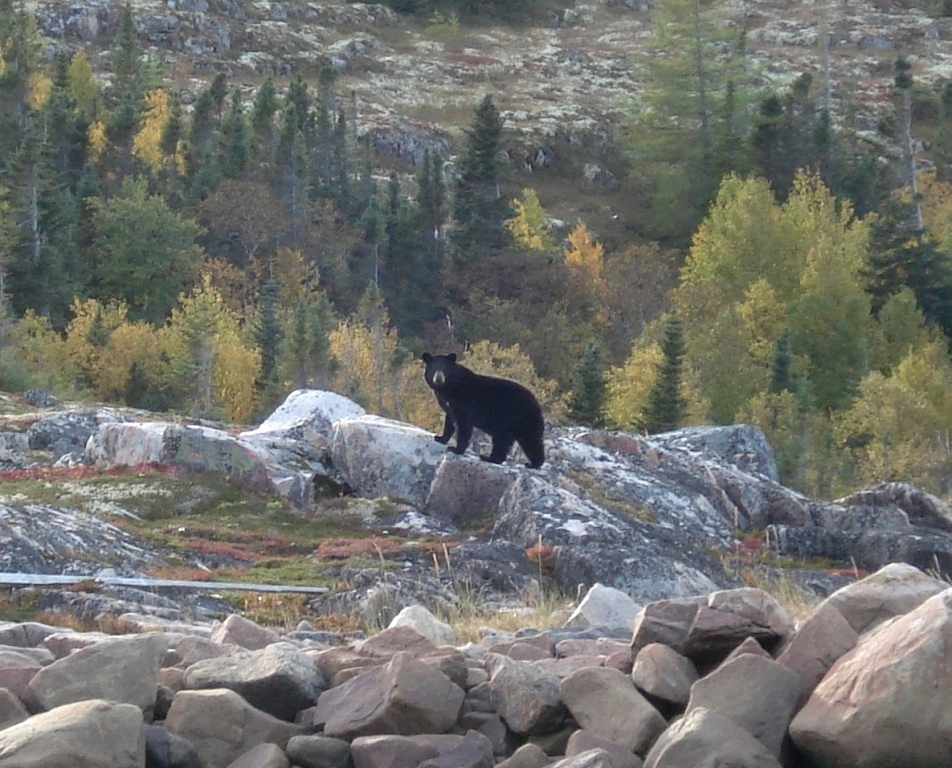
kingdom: Animalia
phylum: Chordata
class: Mammalia
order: Carnivora
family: Ursidae
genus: Ursus
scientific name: Ursus americanus
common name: American black bear
